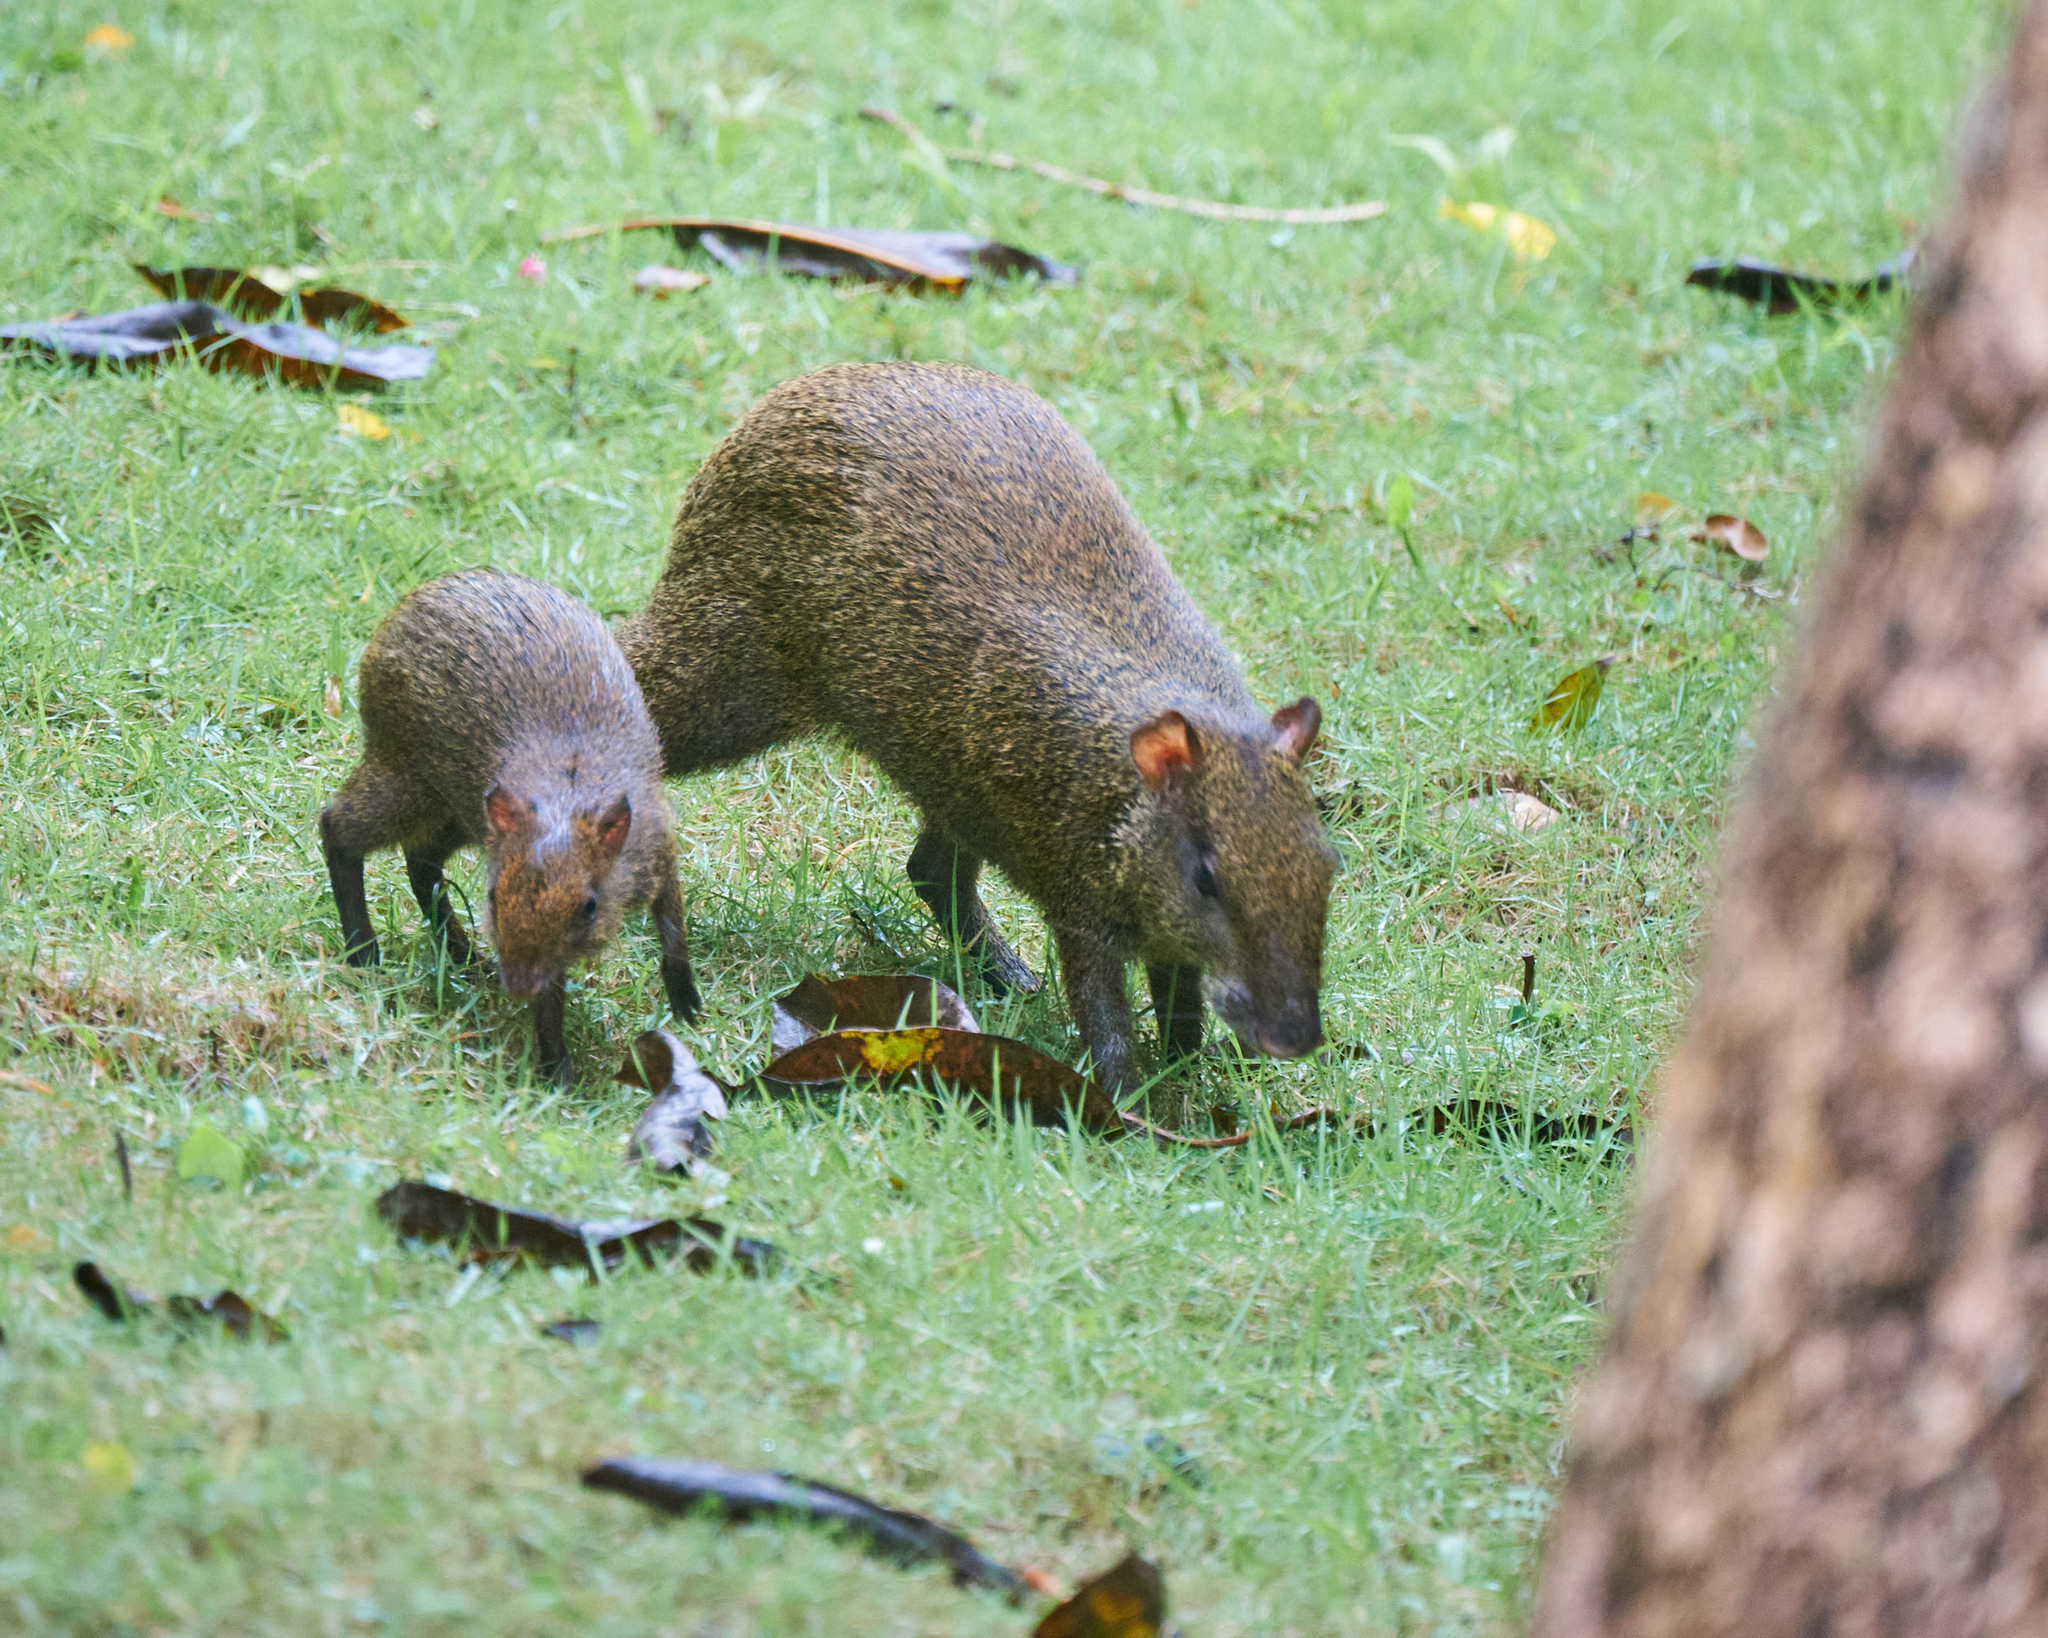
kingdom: Animalia
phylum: Chordata
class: Mammalia
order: Rodentia
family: Dasyproctidae
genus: Dasyprocta
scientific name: Dasyprocta punctata
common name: Central american agouti
